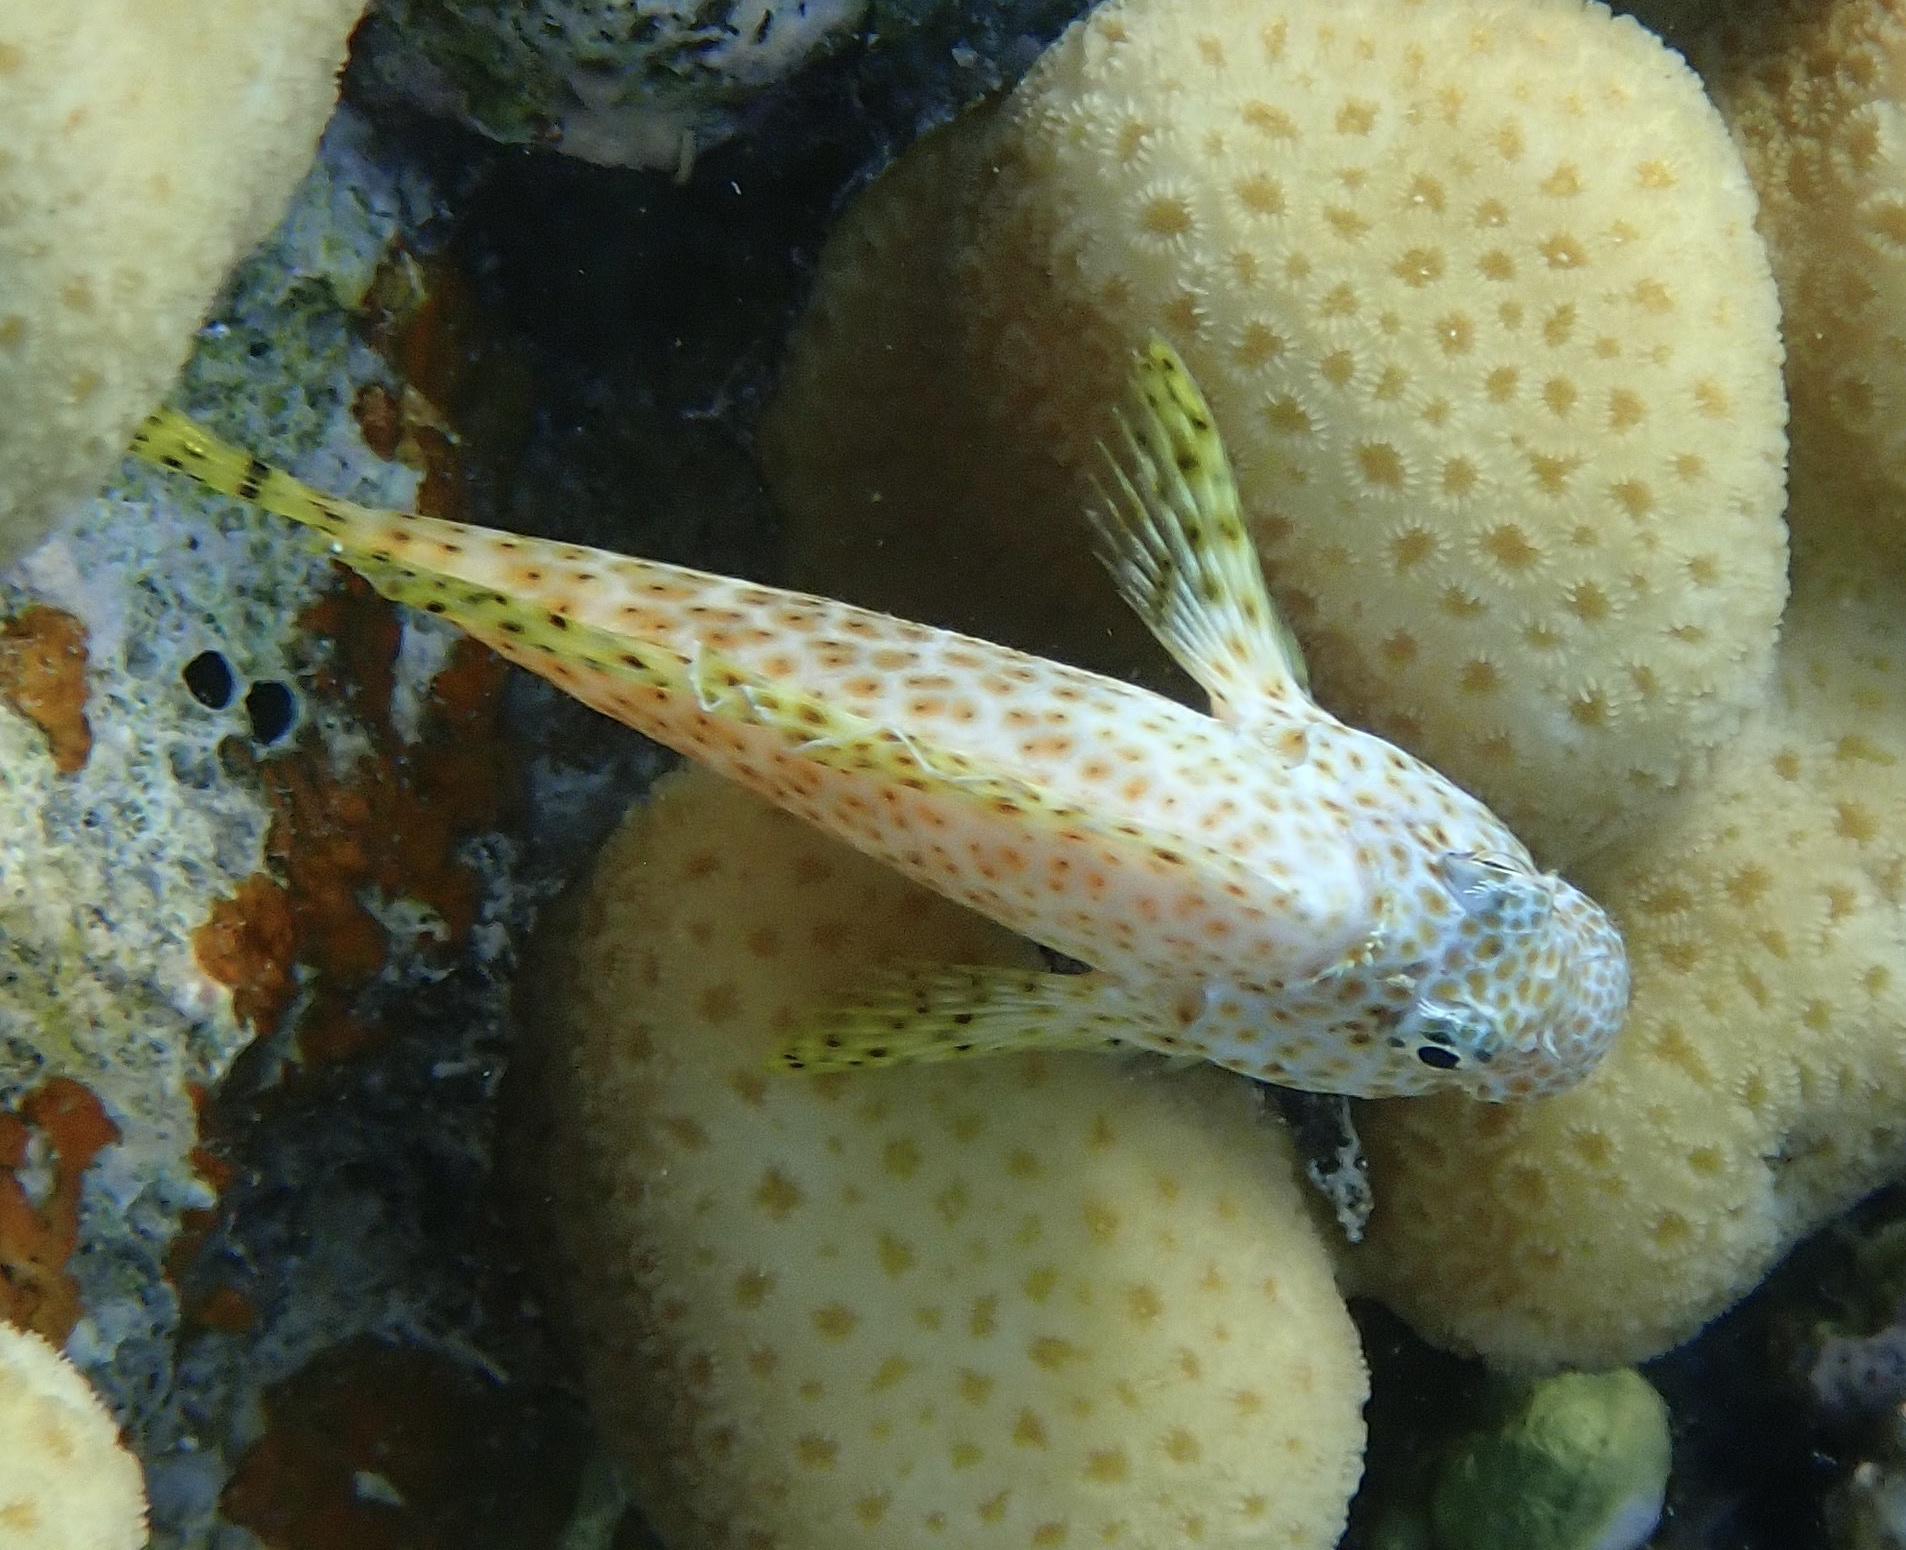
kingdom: Animalia
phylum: Chordata
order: Perciformes
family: Blenniidae
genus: Exallias
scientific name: Exallias brevis
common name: Leopard blenny
